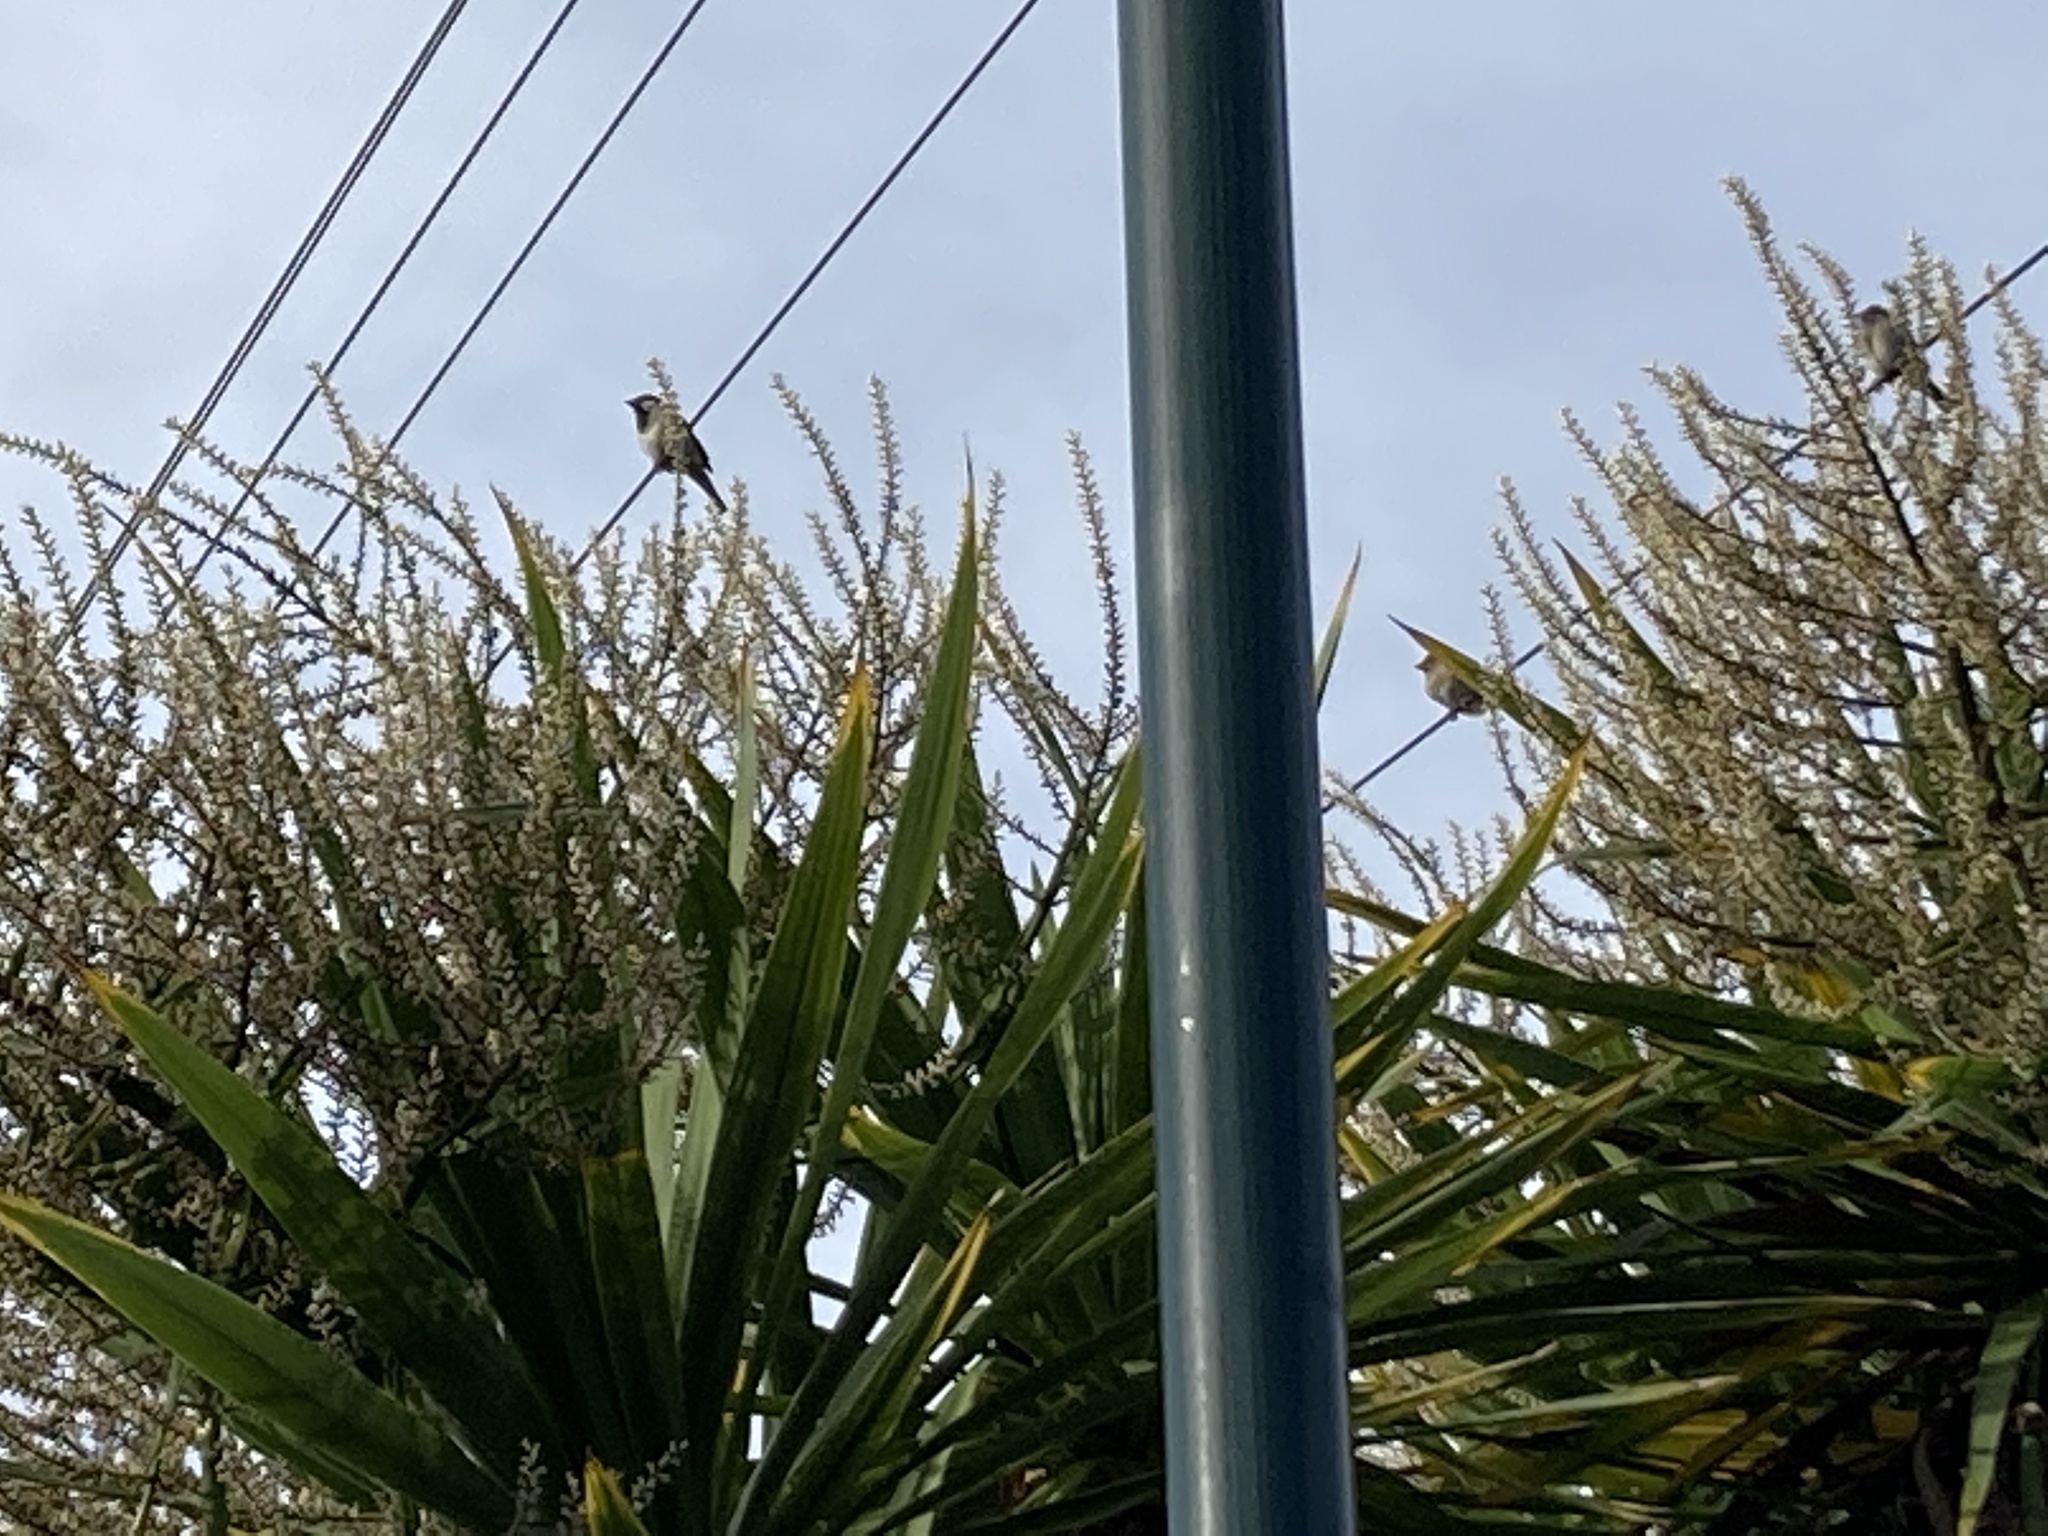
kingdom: Animalia
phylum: Chordata
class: Aves
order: Passeriformes
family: Passeridae
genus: Passer
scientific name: Passer domesticus
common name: House sparrow
